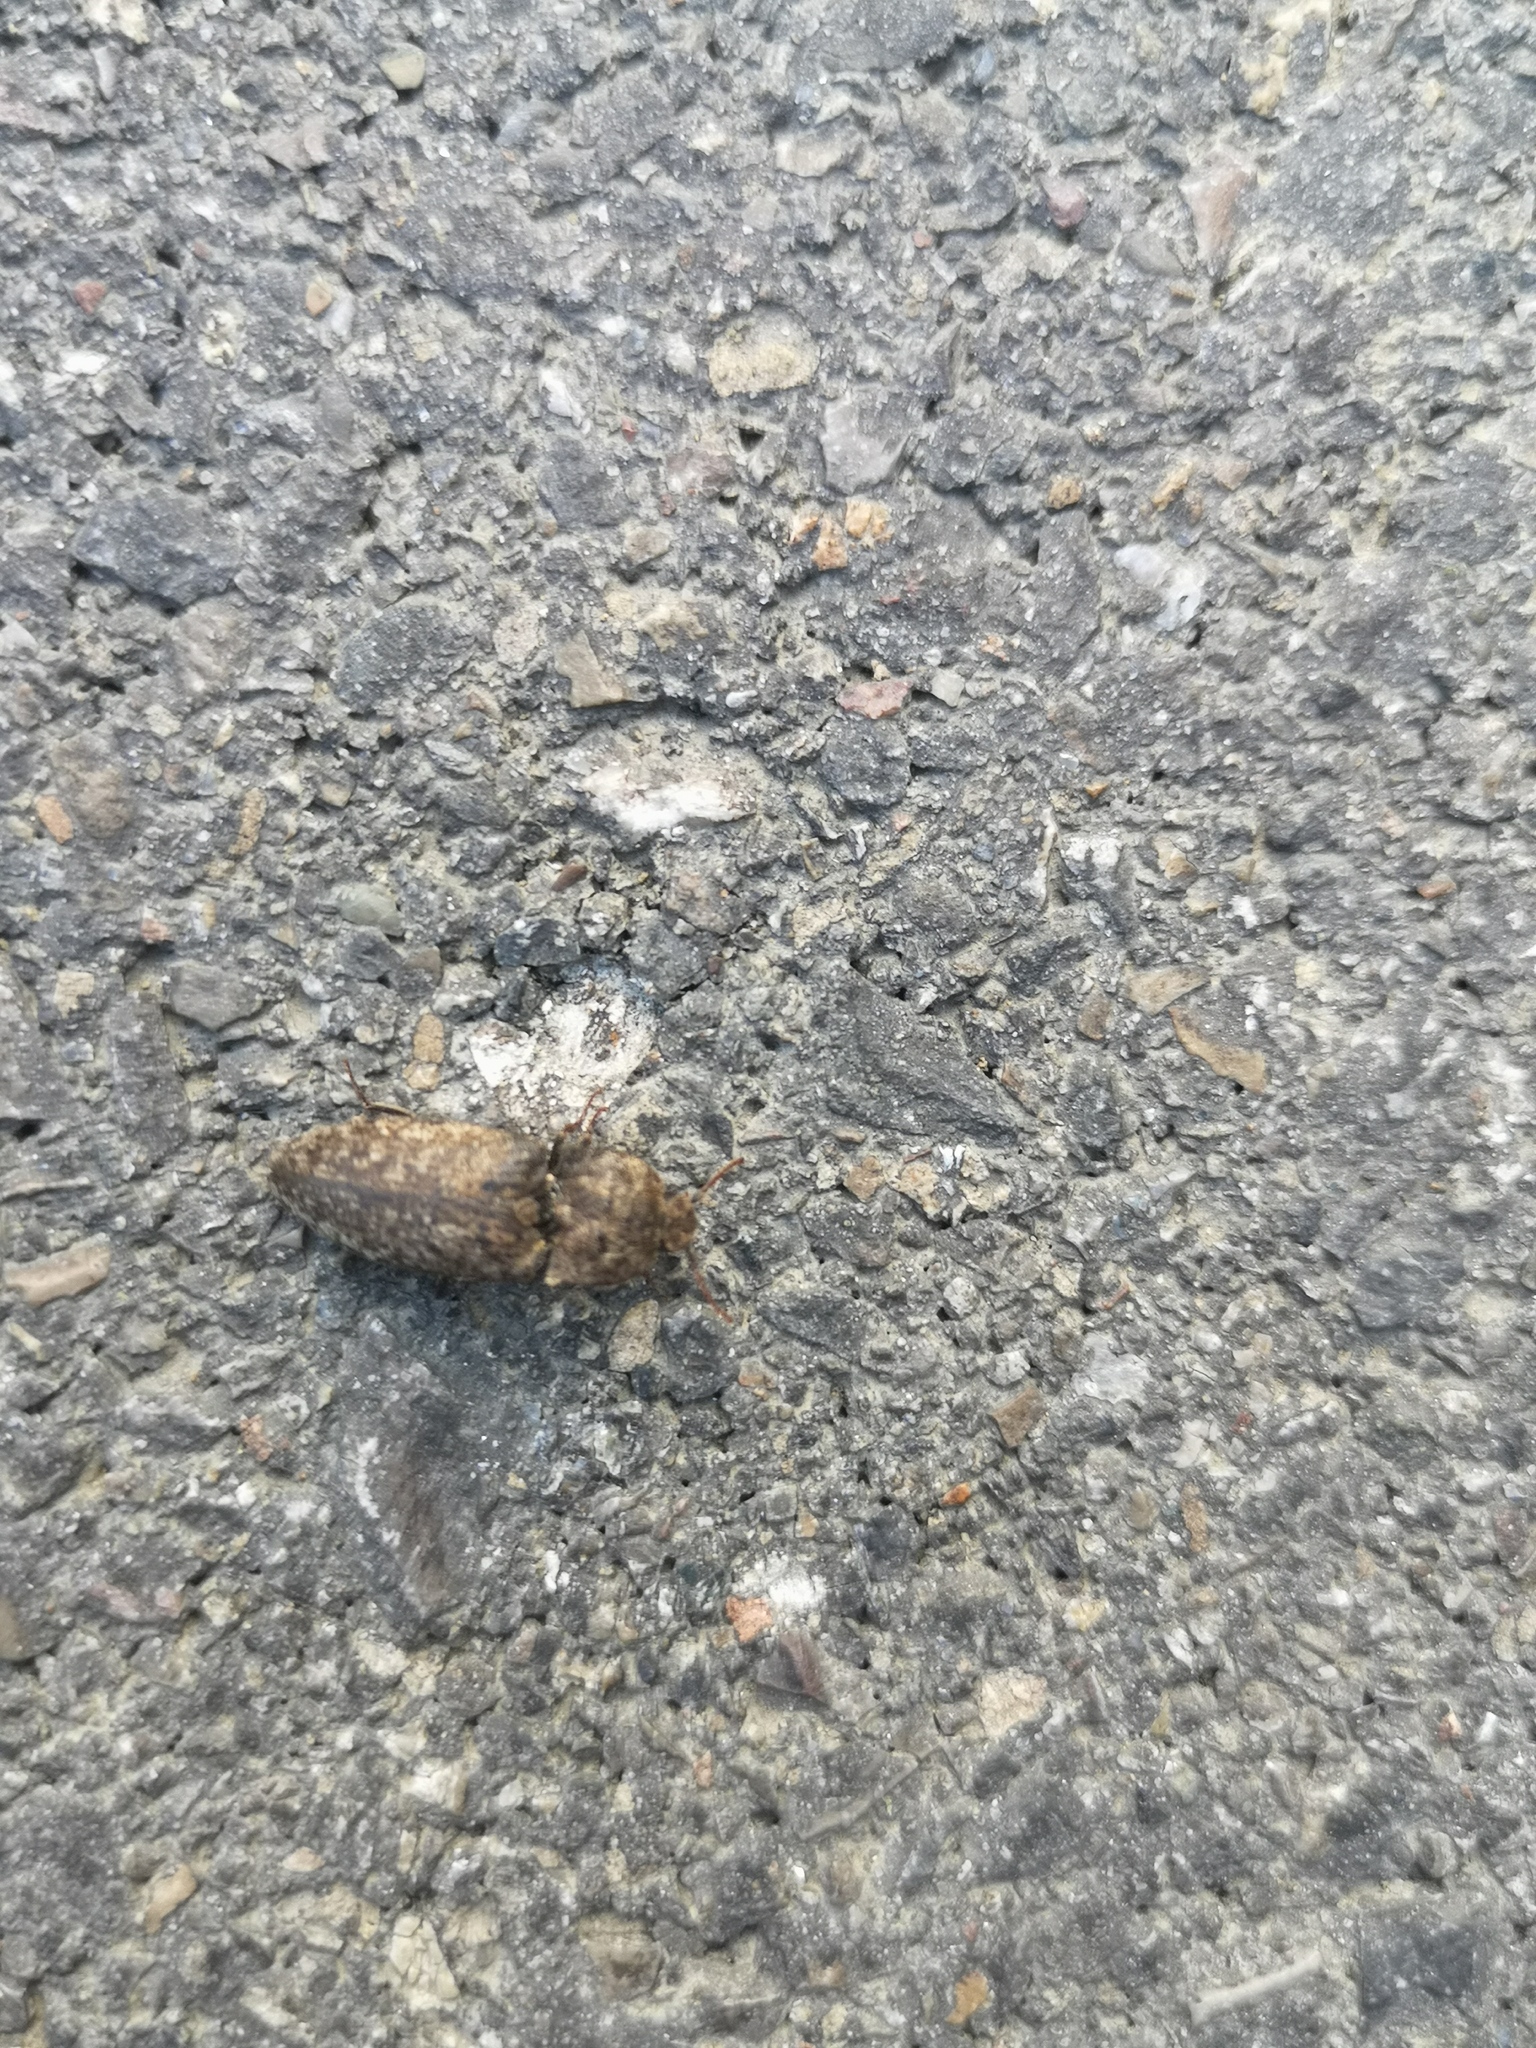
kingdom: Animalia
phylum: Arthropoda
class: Insecta
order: Coleoptera
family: Elateridae
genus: Agrypnus
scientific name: Agrypnus murinus
